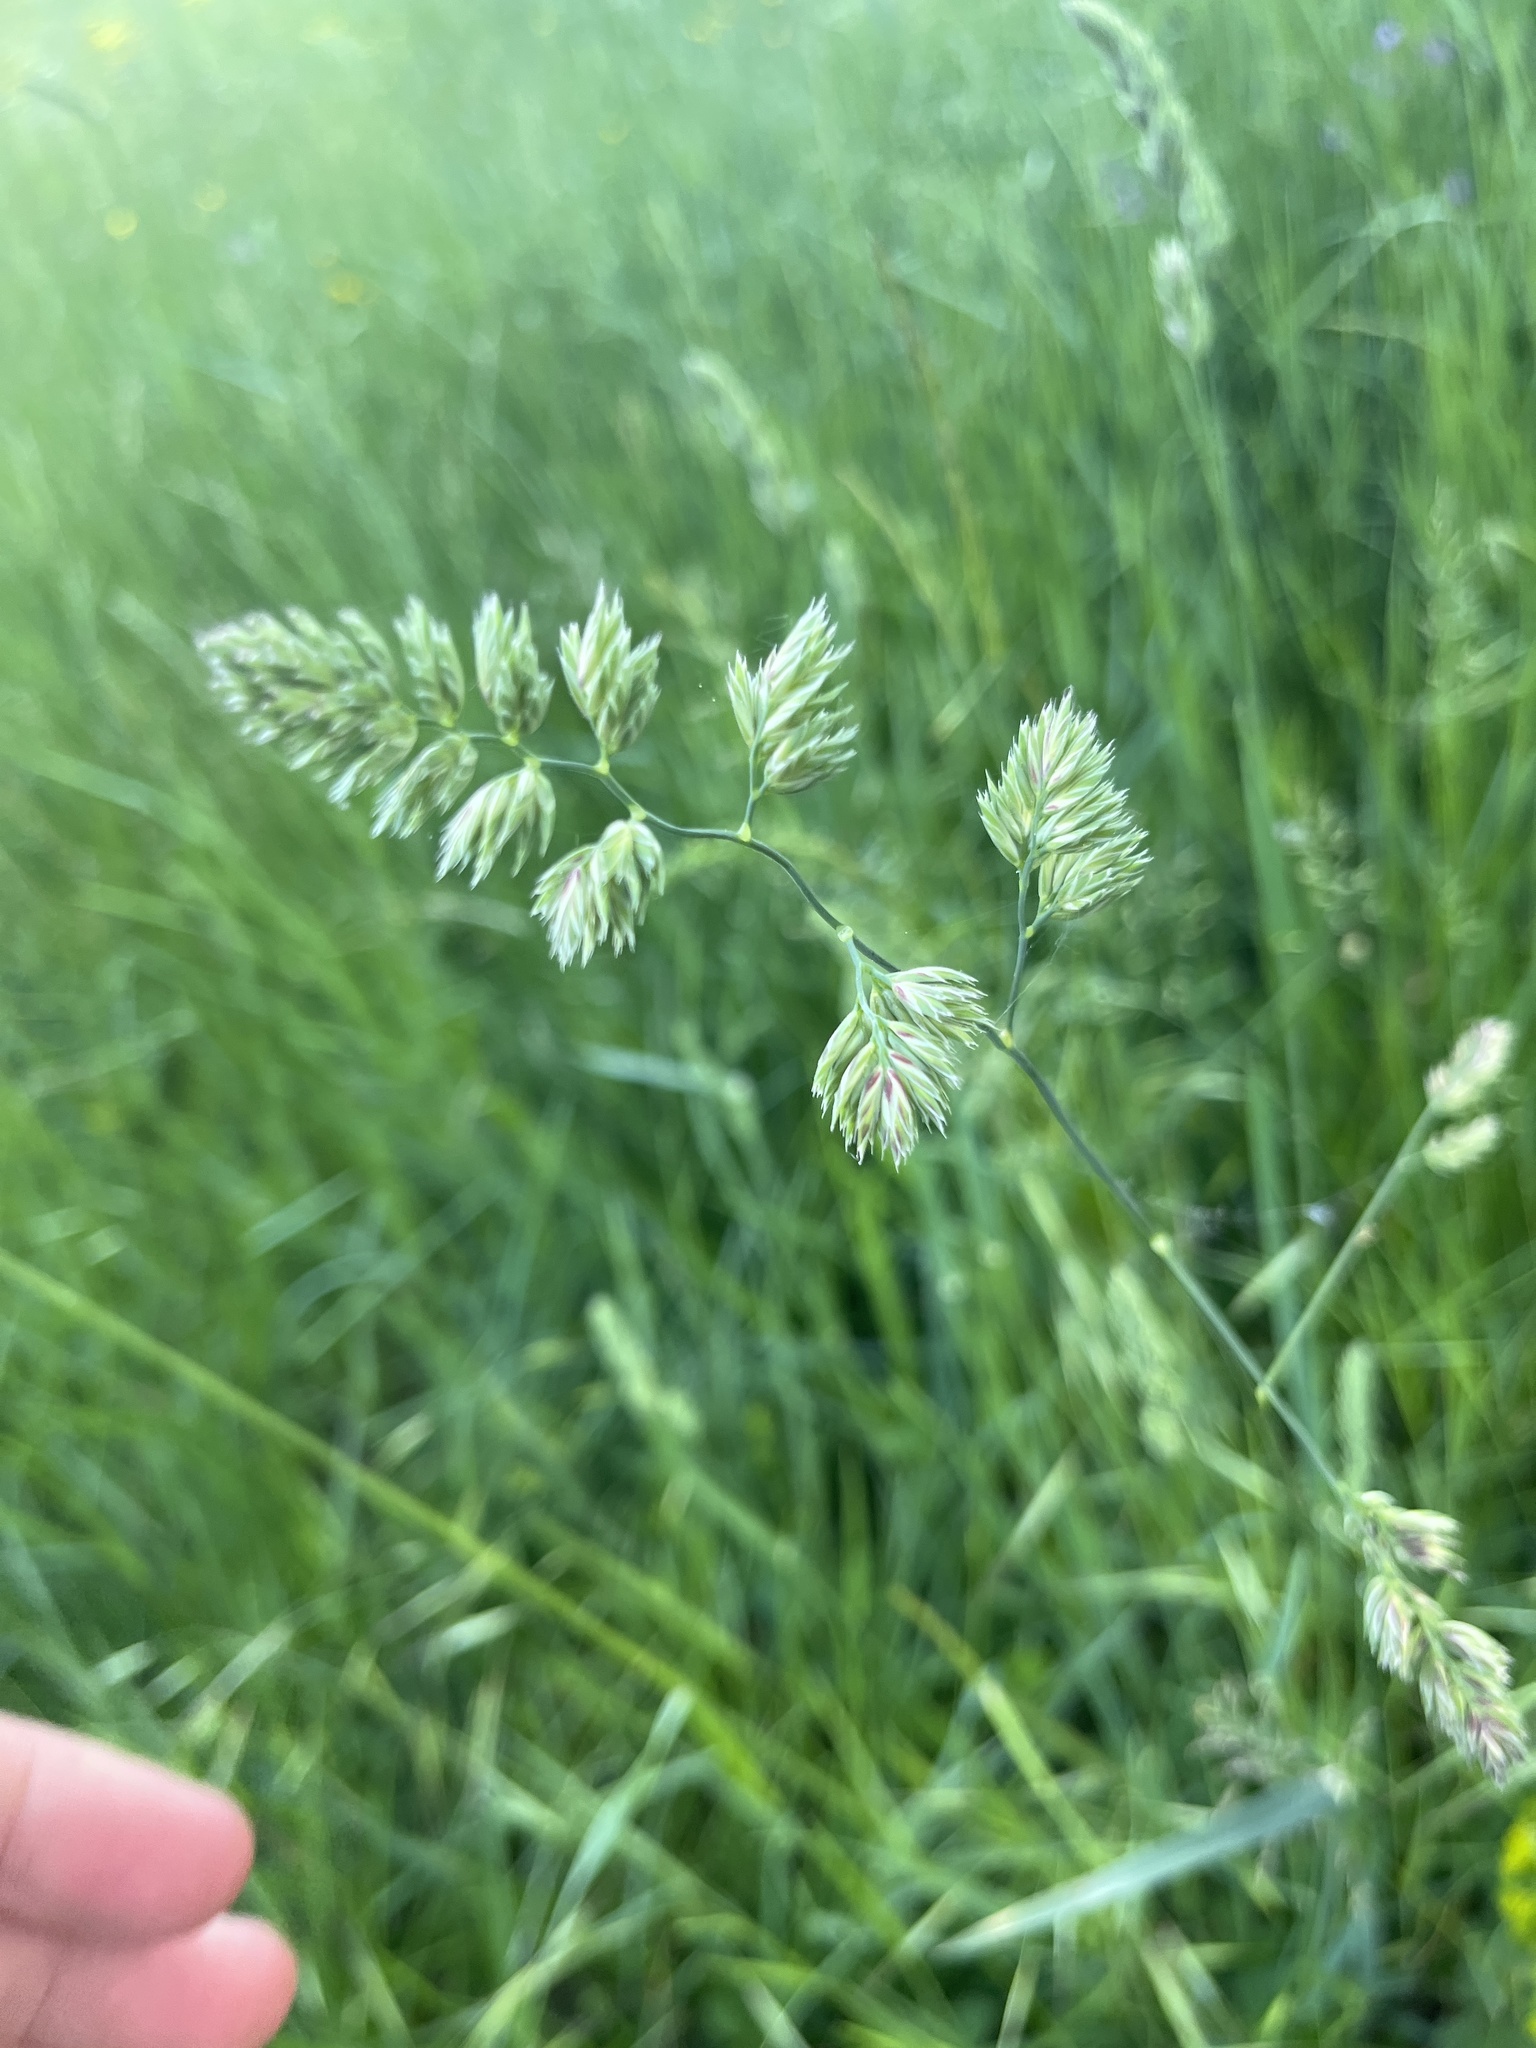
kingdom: Plantae
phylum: Tracheophyta
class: Liliopsida
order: Poales
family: Poaceae
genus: Dactylis
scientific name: Dactylis glomerata
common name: Orchardgrass
